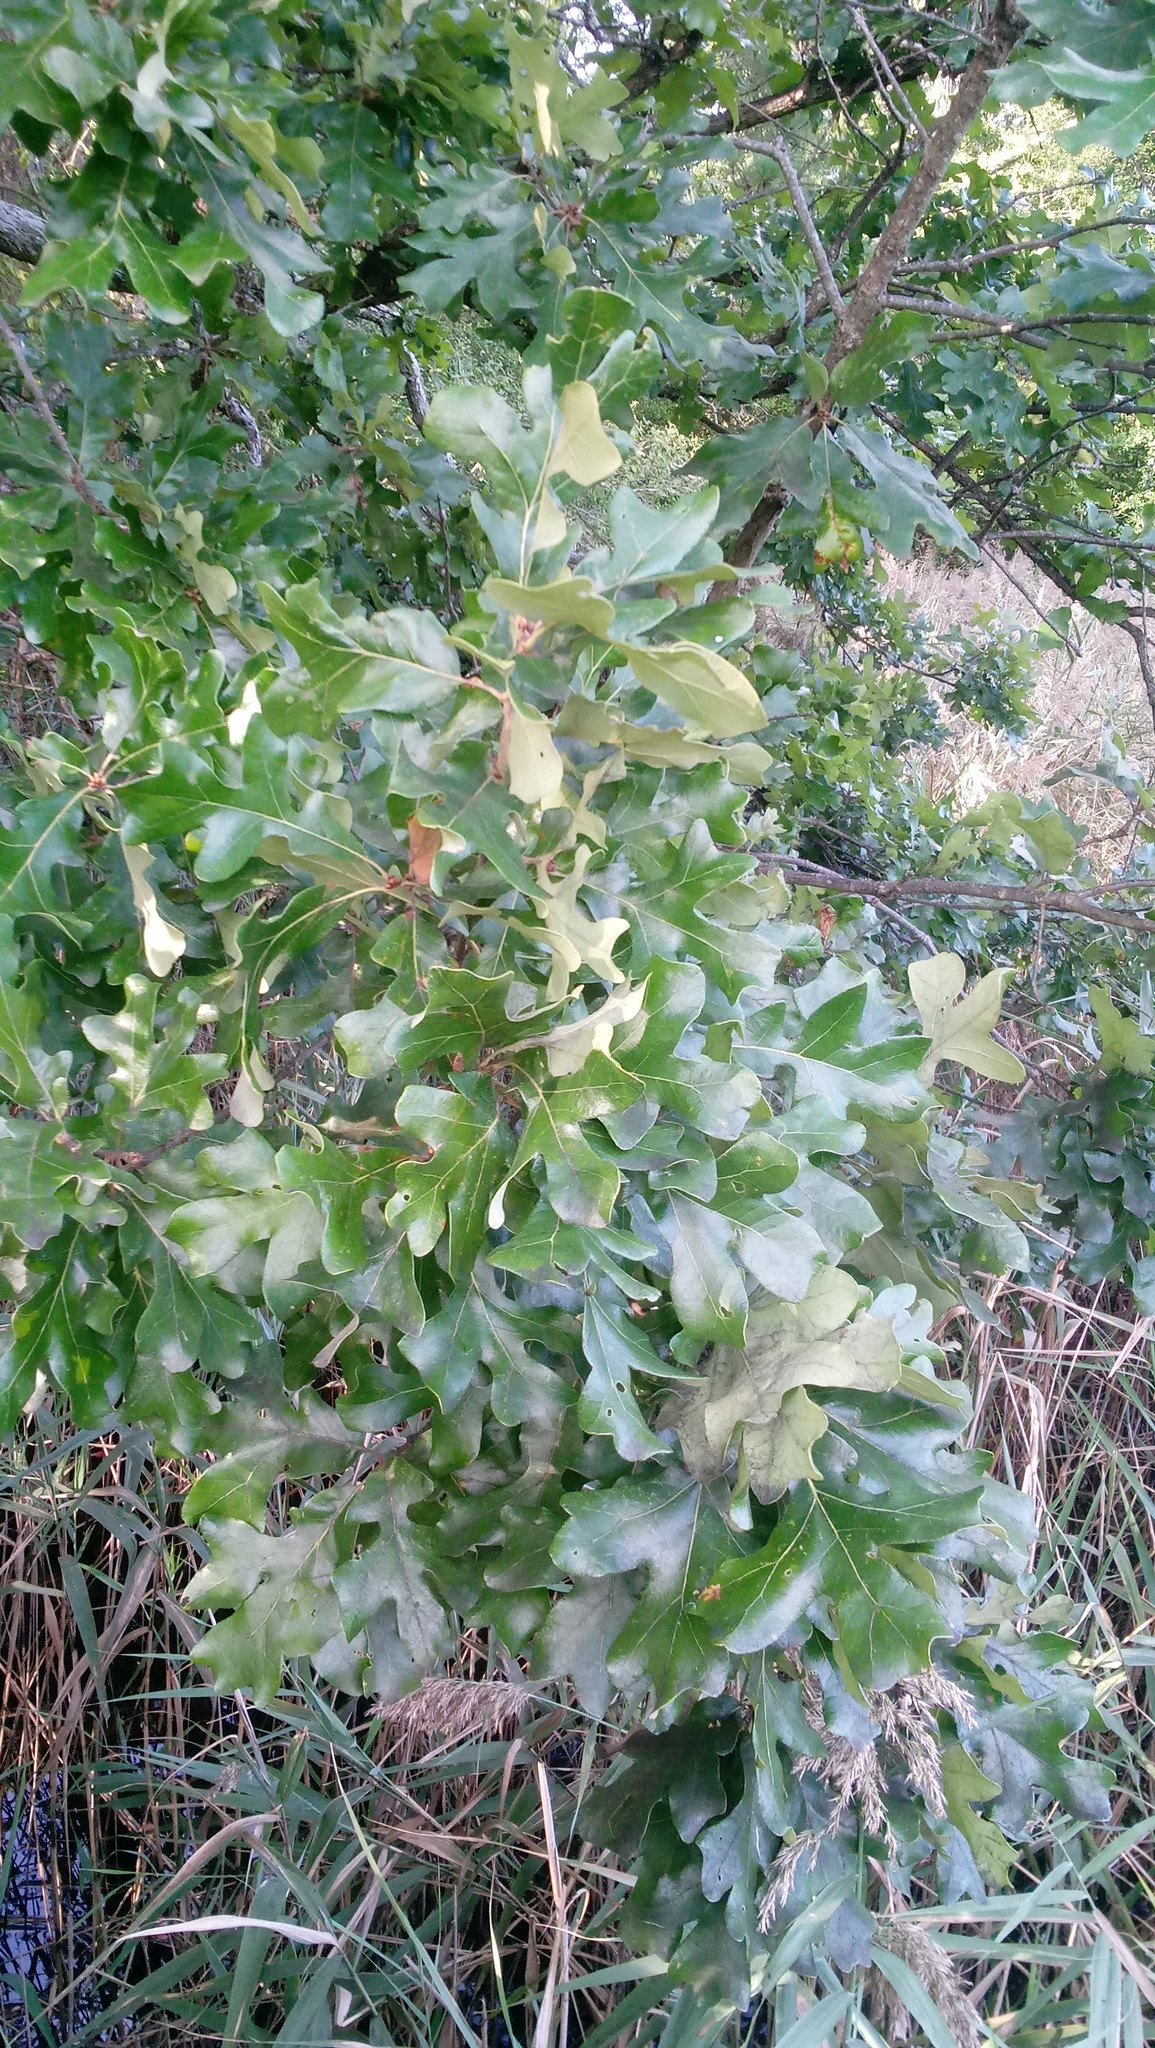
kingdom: Plantae
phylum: Tracheophyta
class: Magnoliopsida
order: Fagales
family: Fagaceae
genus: Quercus
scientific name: Quercus stellata
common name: Post oak
